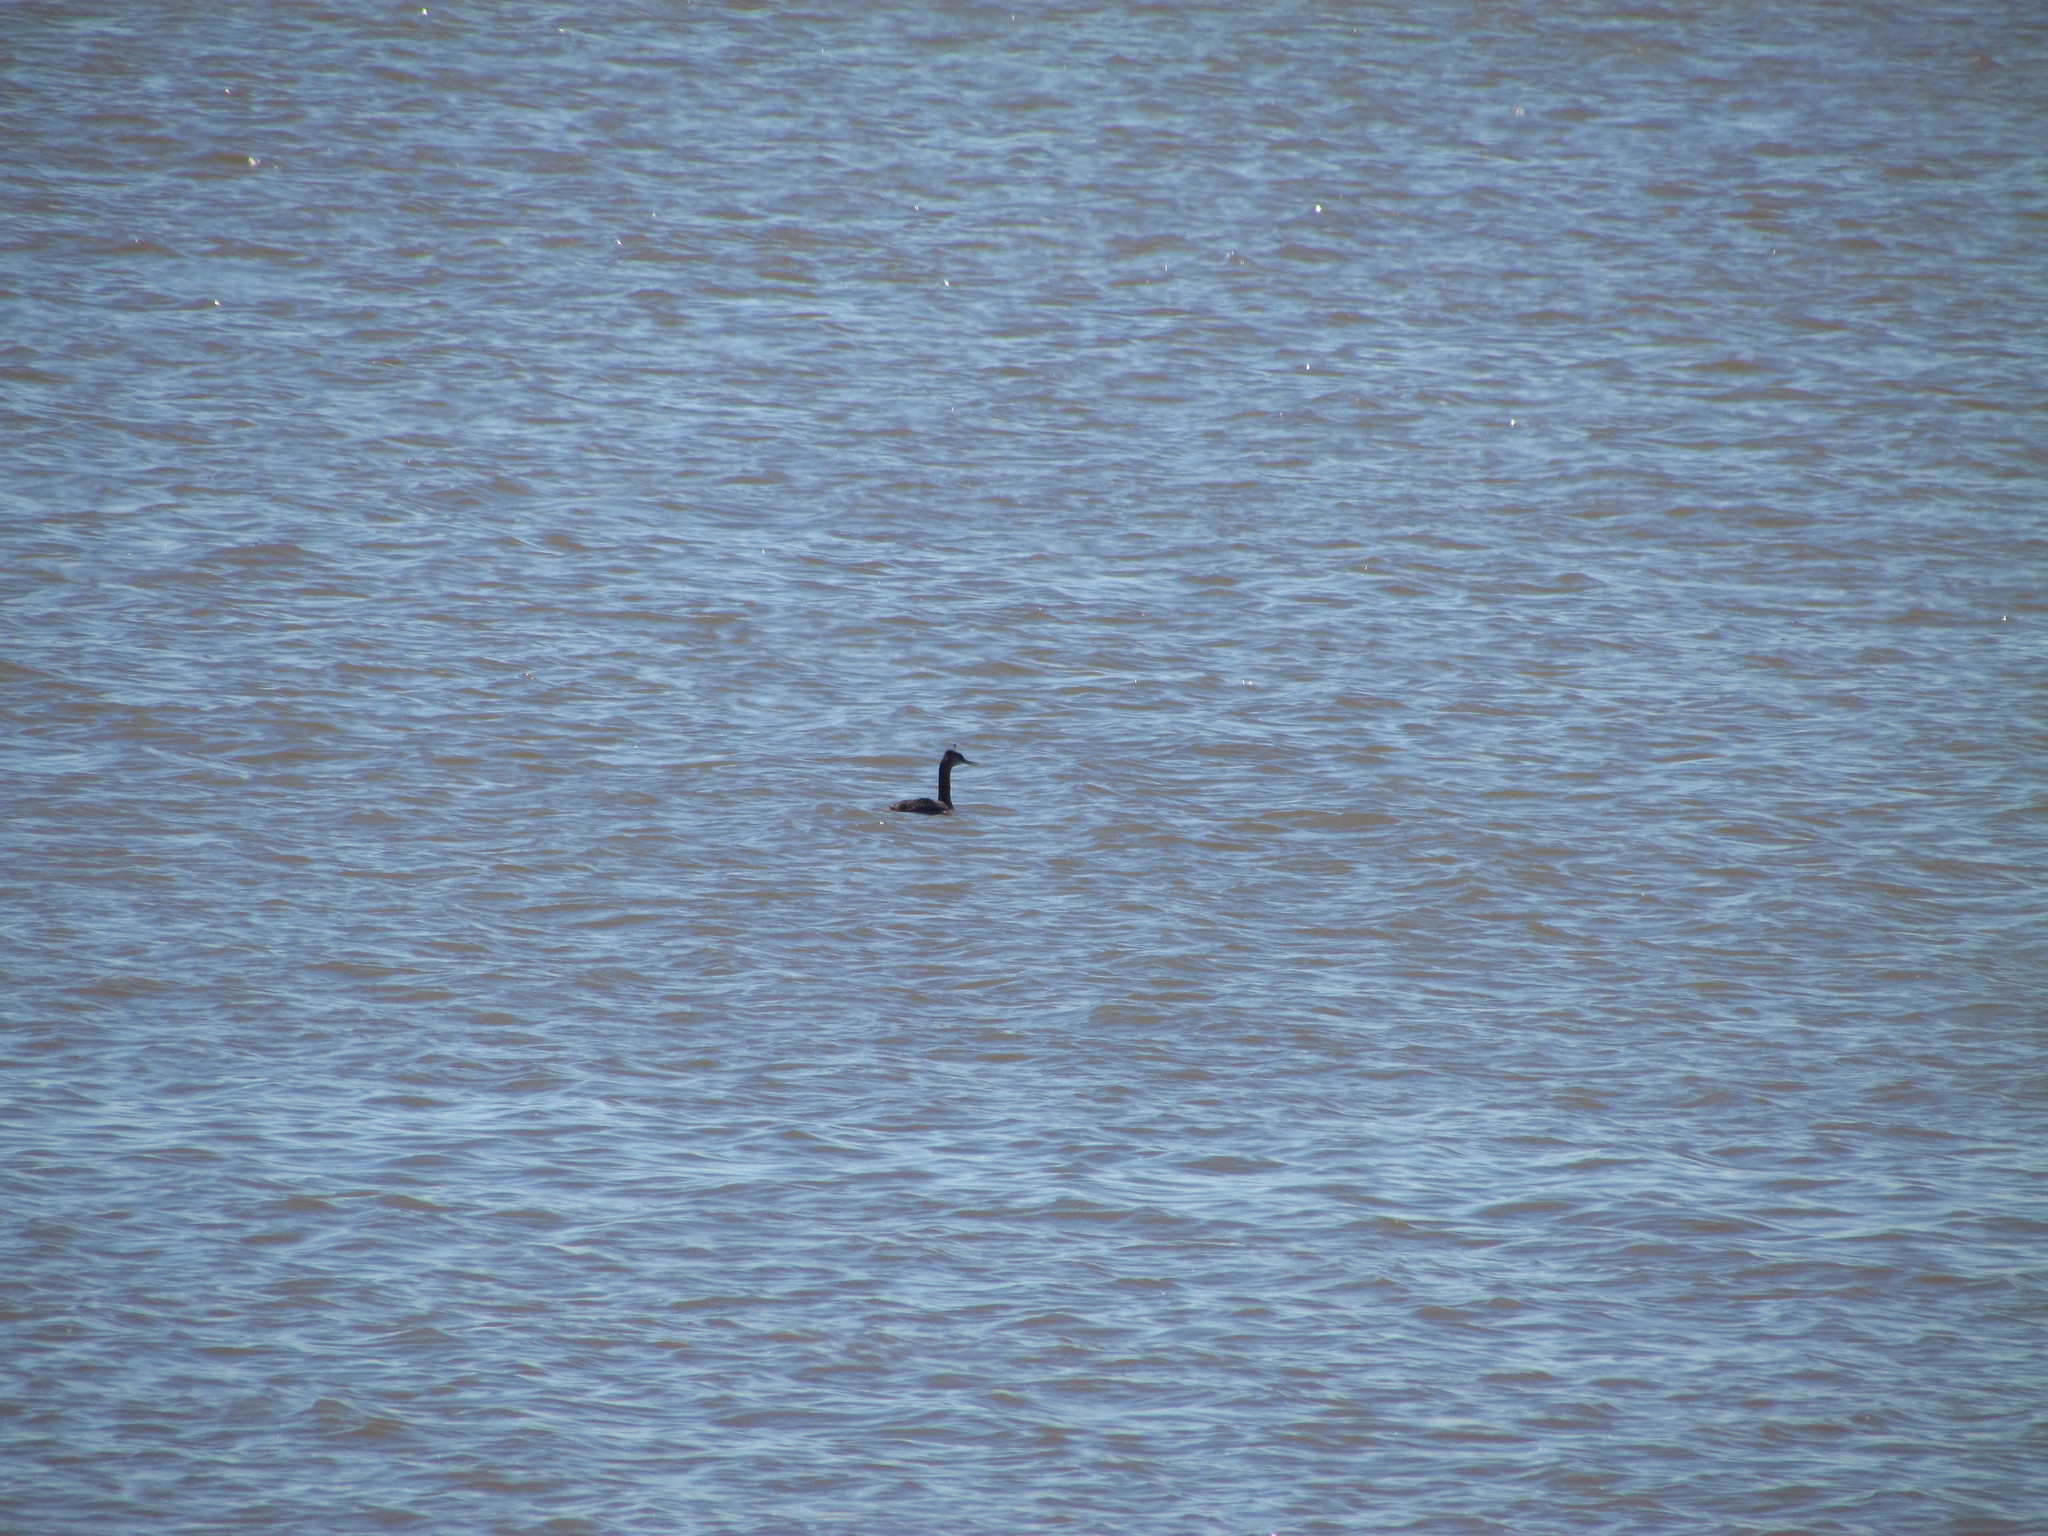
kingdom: Animalia
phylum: Chordata
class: Aves
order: Podicipediformes
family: Podicipedidae
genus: Podiceps
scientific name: Podiceps major
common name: Great grebe
